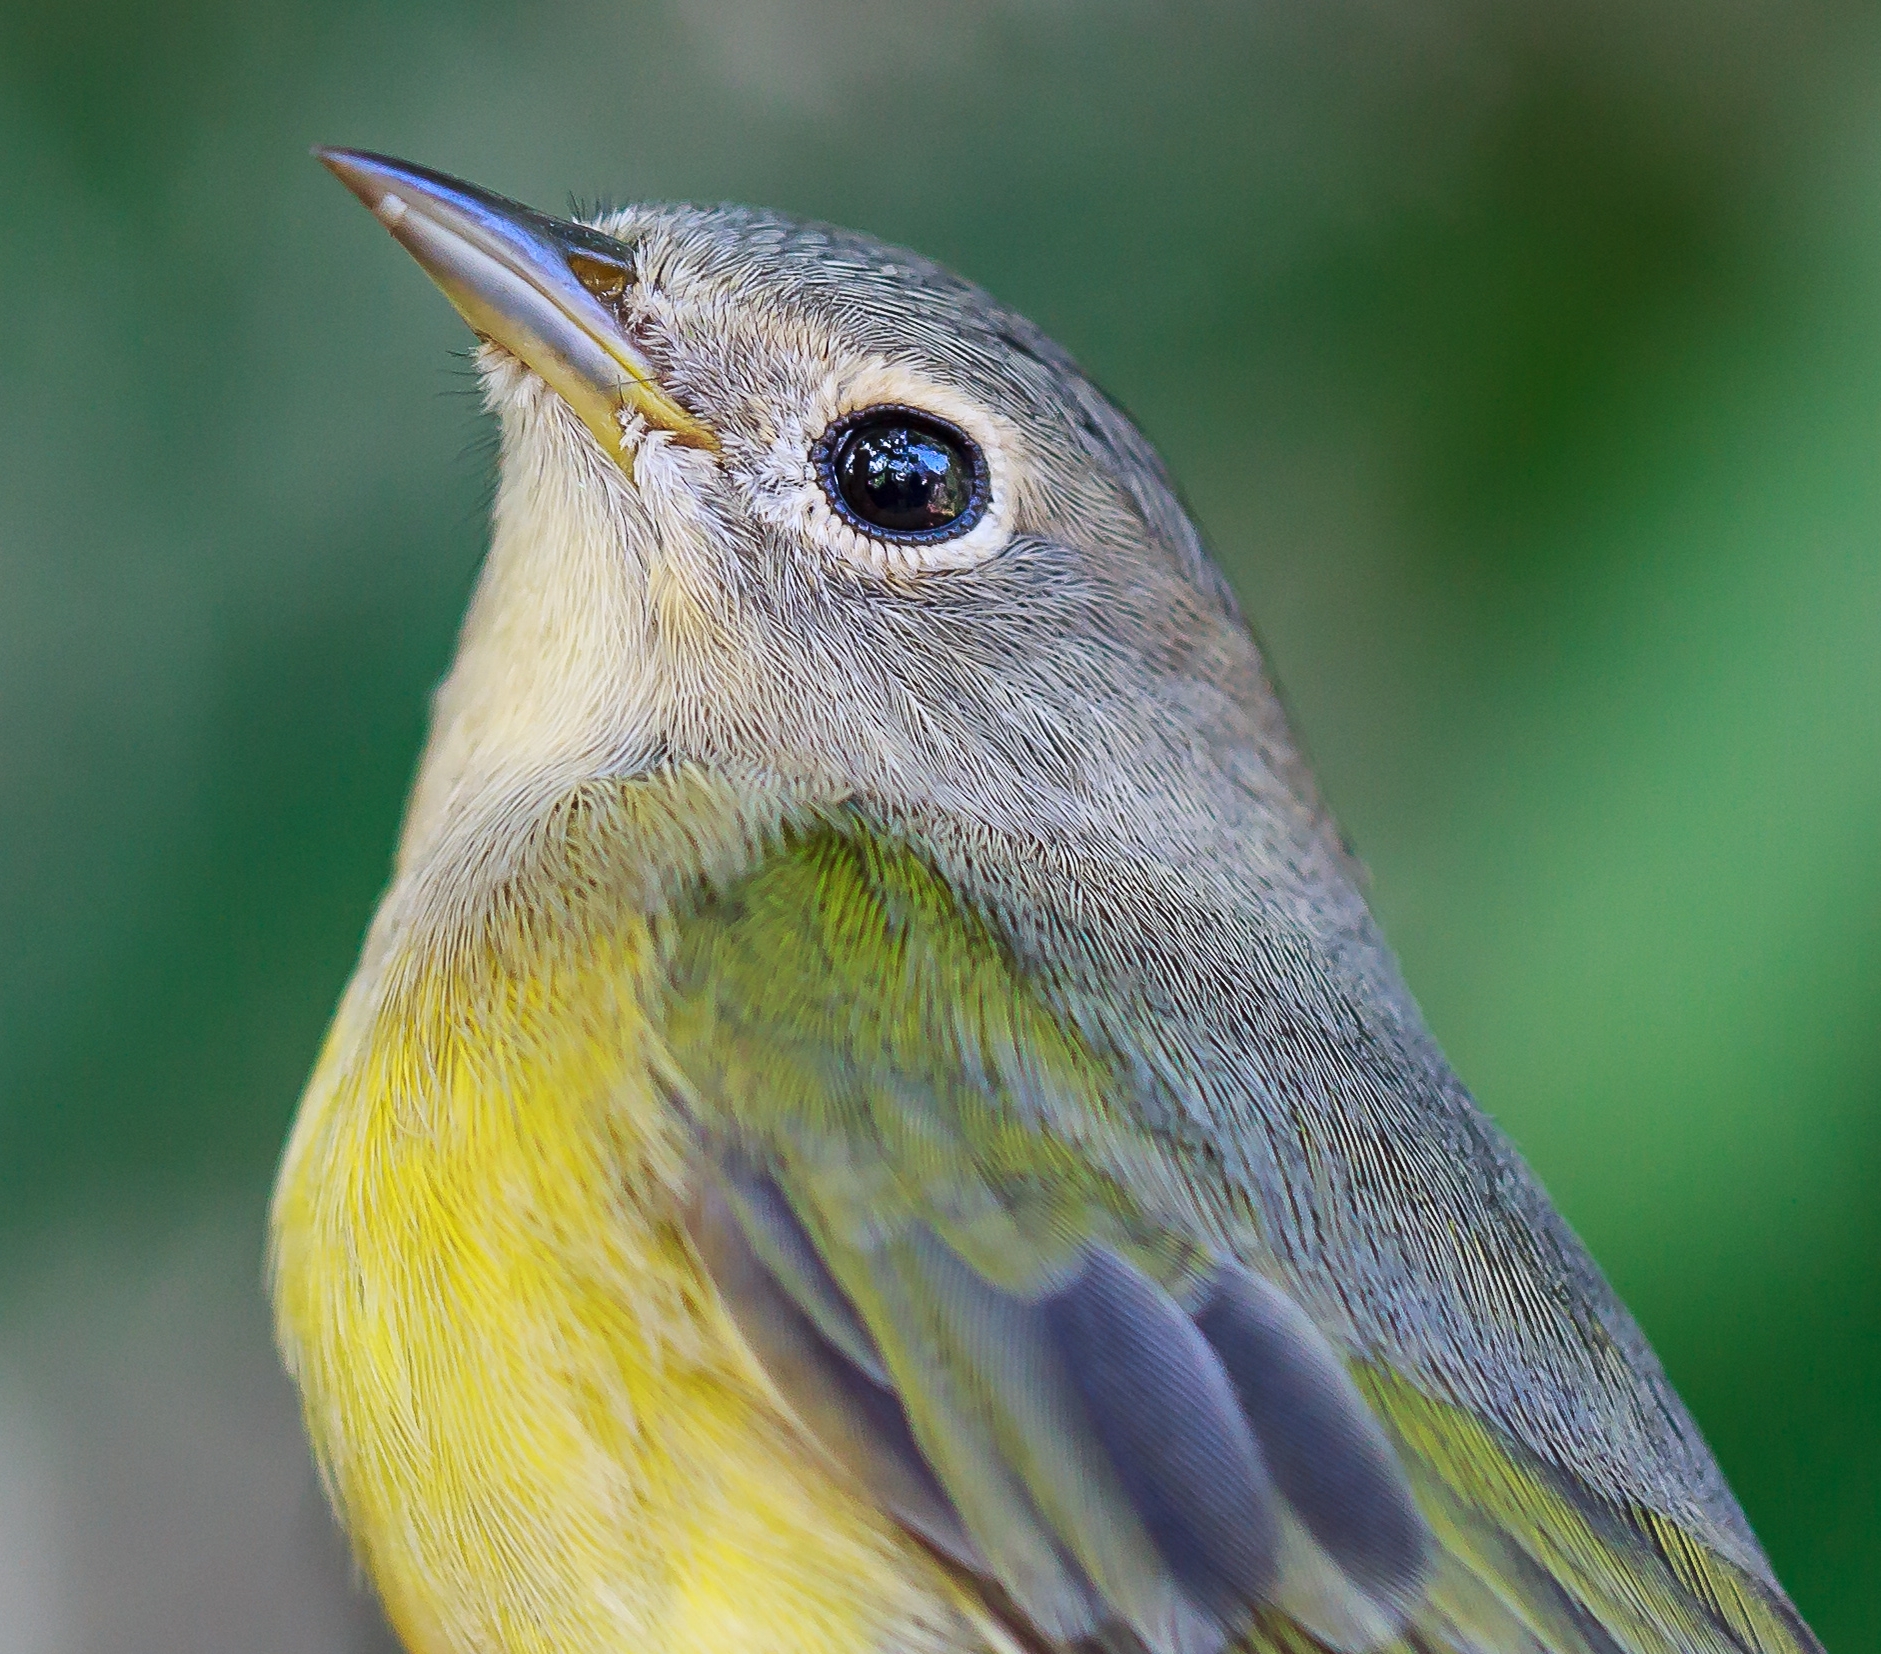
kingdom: Animalia
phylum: Chordata
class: Aves
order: Passeriformes
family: Parulidae
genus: Leiothlypis
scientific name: Leiothlypis ruficapilla
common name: Nashville warbler
